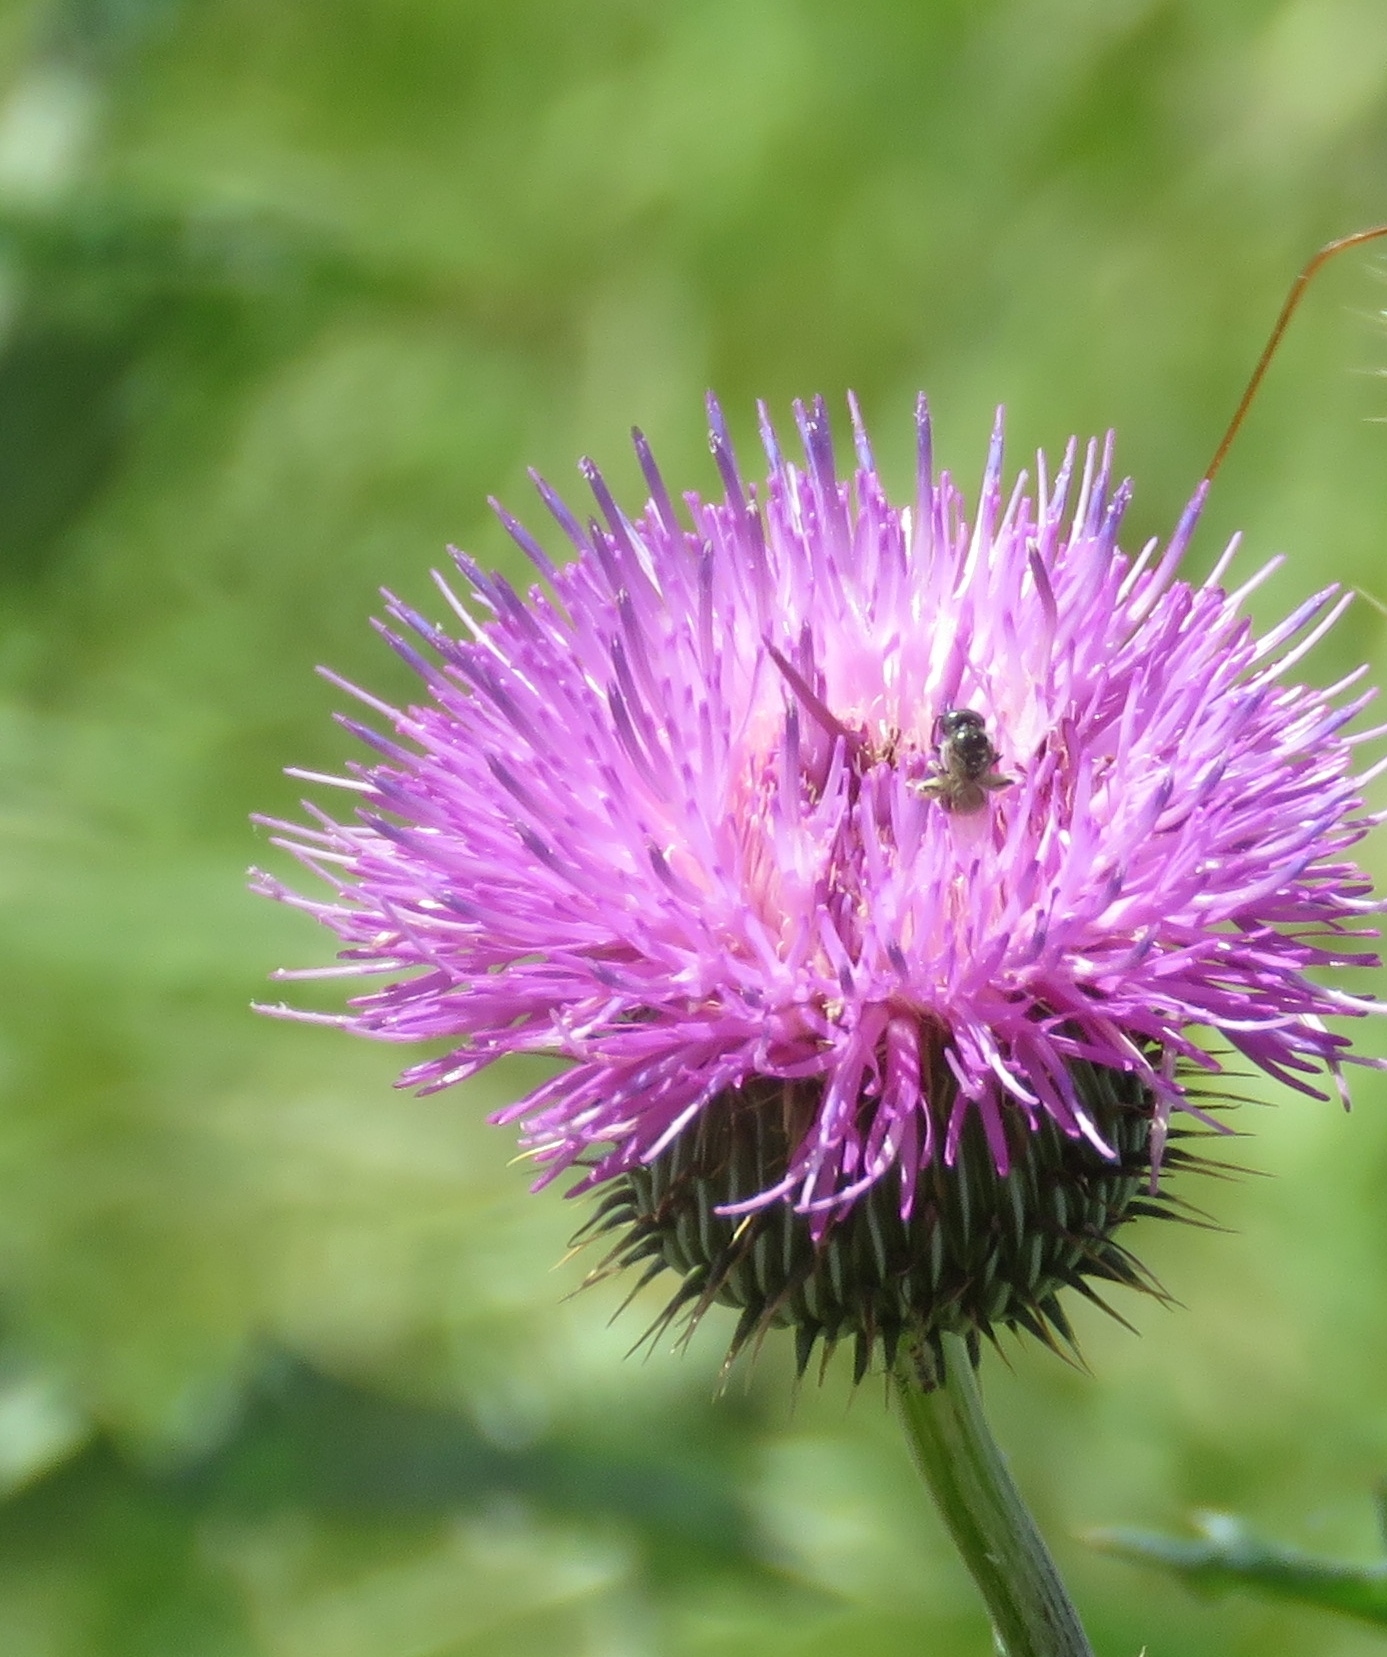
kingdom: Plantae
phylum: Tracheophyta
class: Magnoliopsida
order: Asterales
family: Asteraceae
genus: Cirsium
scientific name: Cirsium texanum
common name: Texas purple thistle
